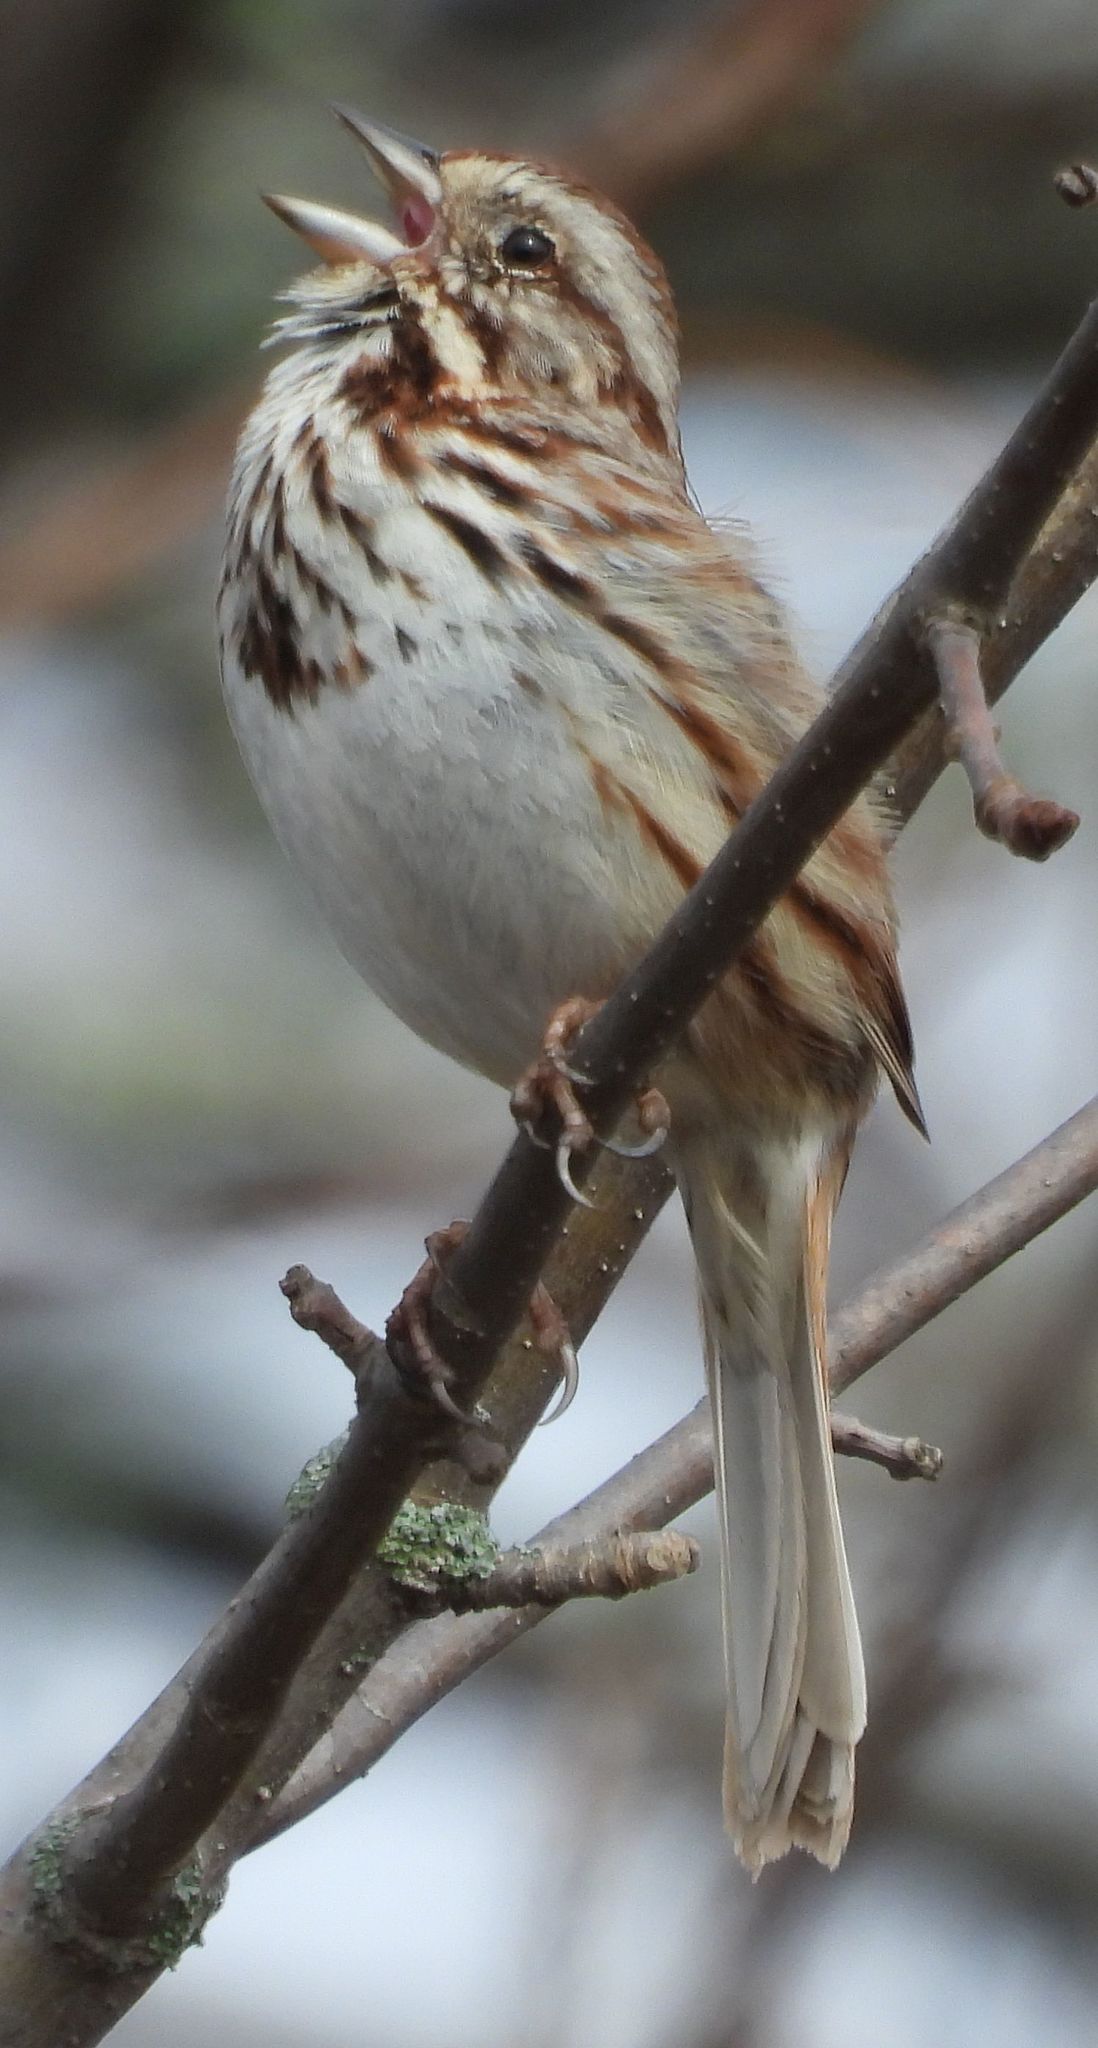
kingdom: Animalia
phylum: Chordata
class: Aves
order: Passeriformes
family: Passerellidae
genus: Melospiza
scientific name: Melospiza melodia
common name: Song sparrow
